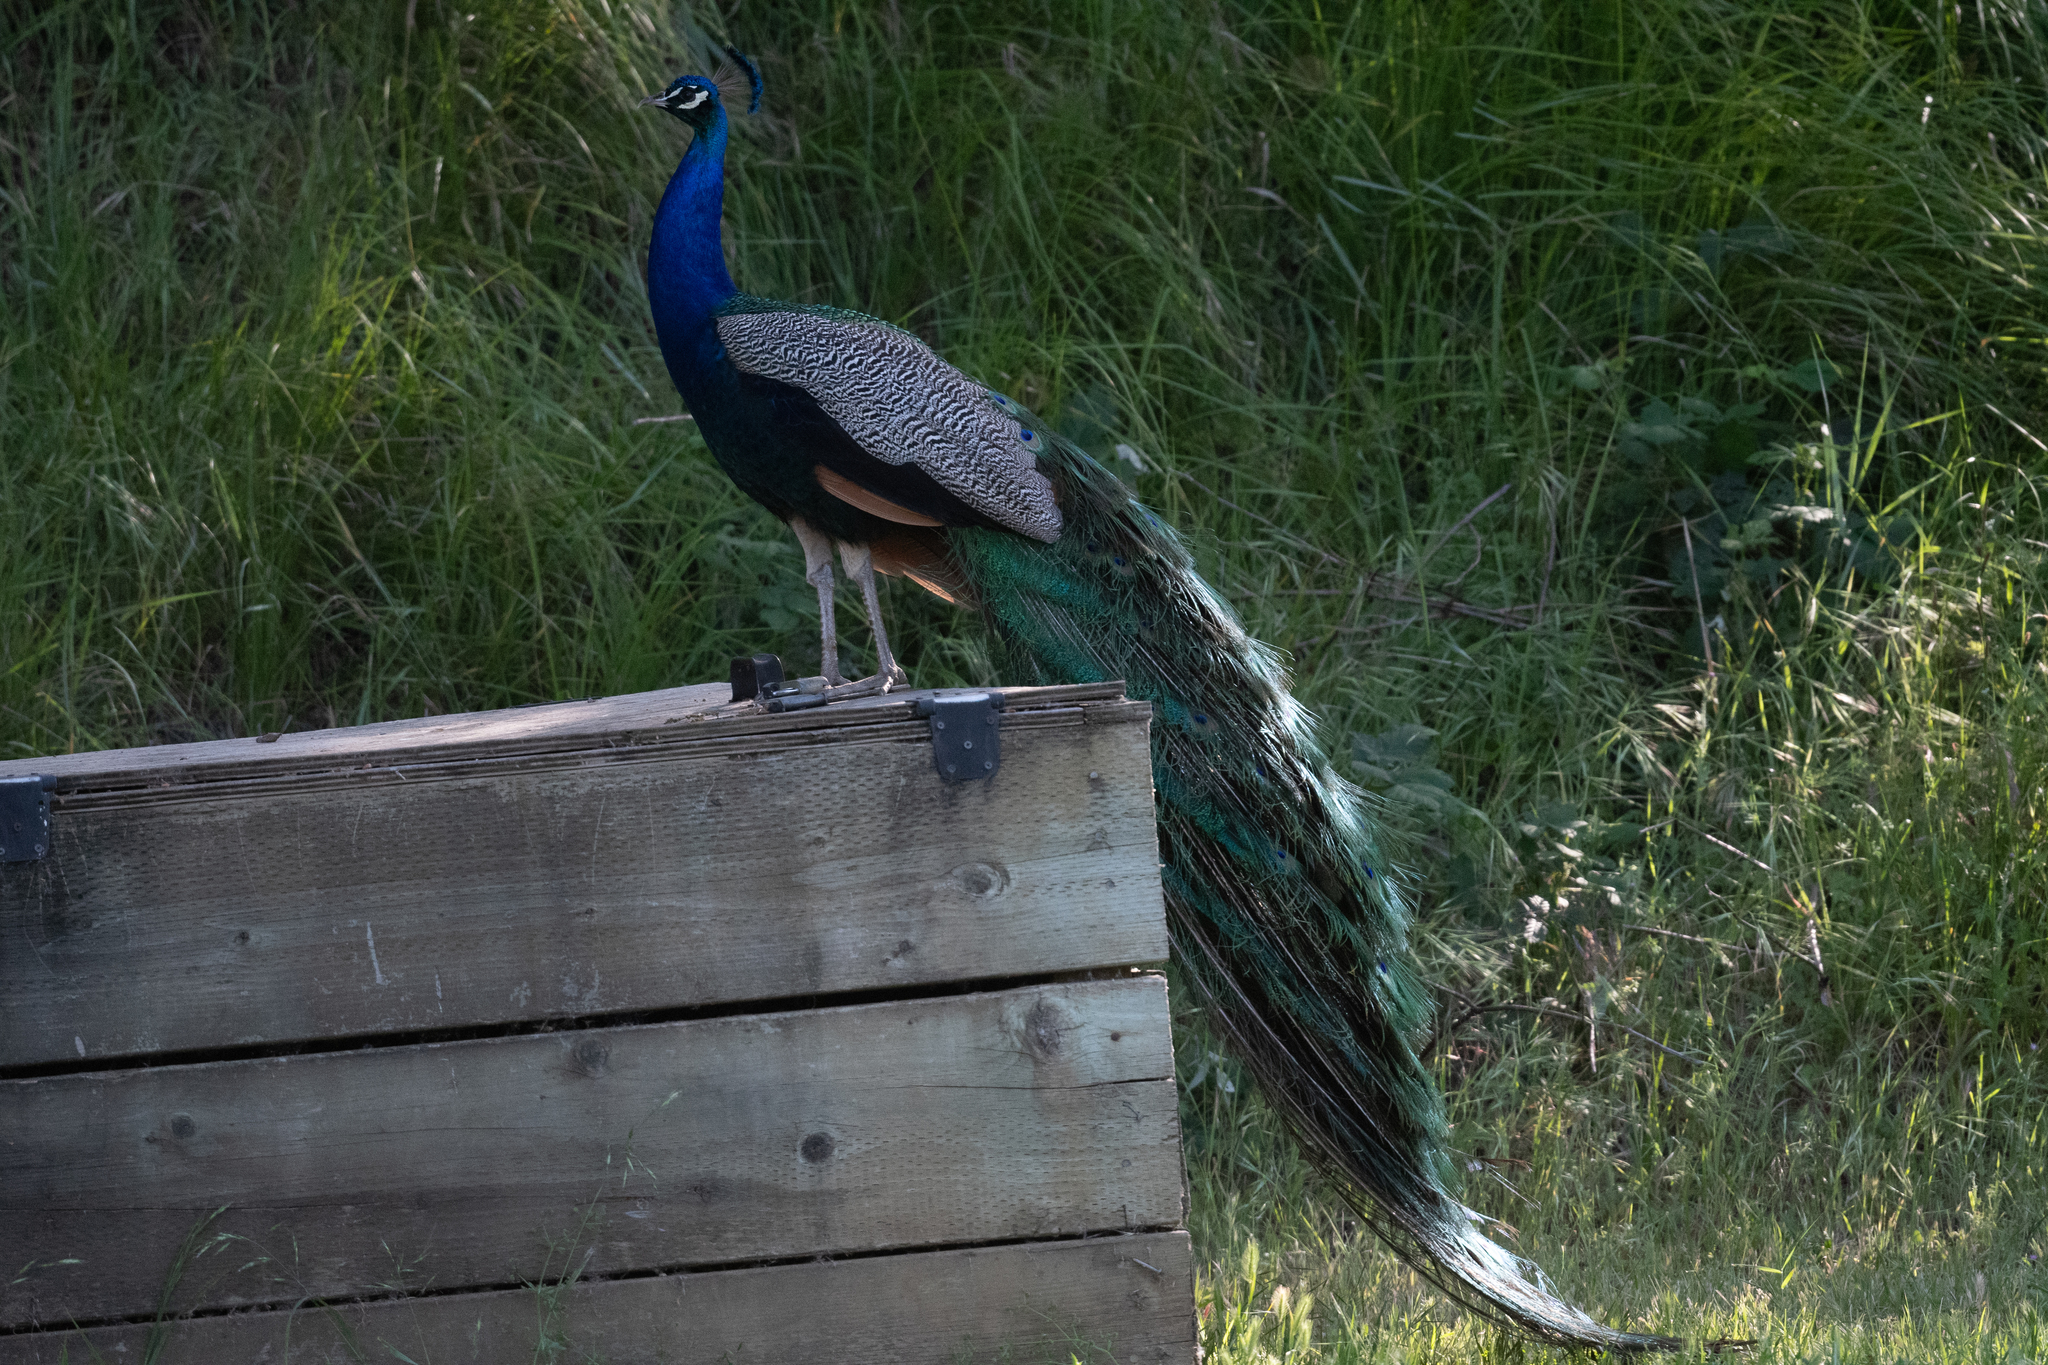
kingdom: Animalia
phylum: Chordata
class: Aves
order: Galliformes
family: Phasianidae
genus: Pavo
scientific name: Pavo cristatus
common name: Indian peafowl
